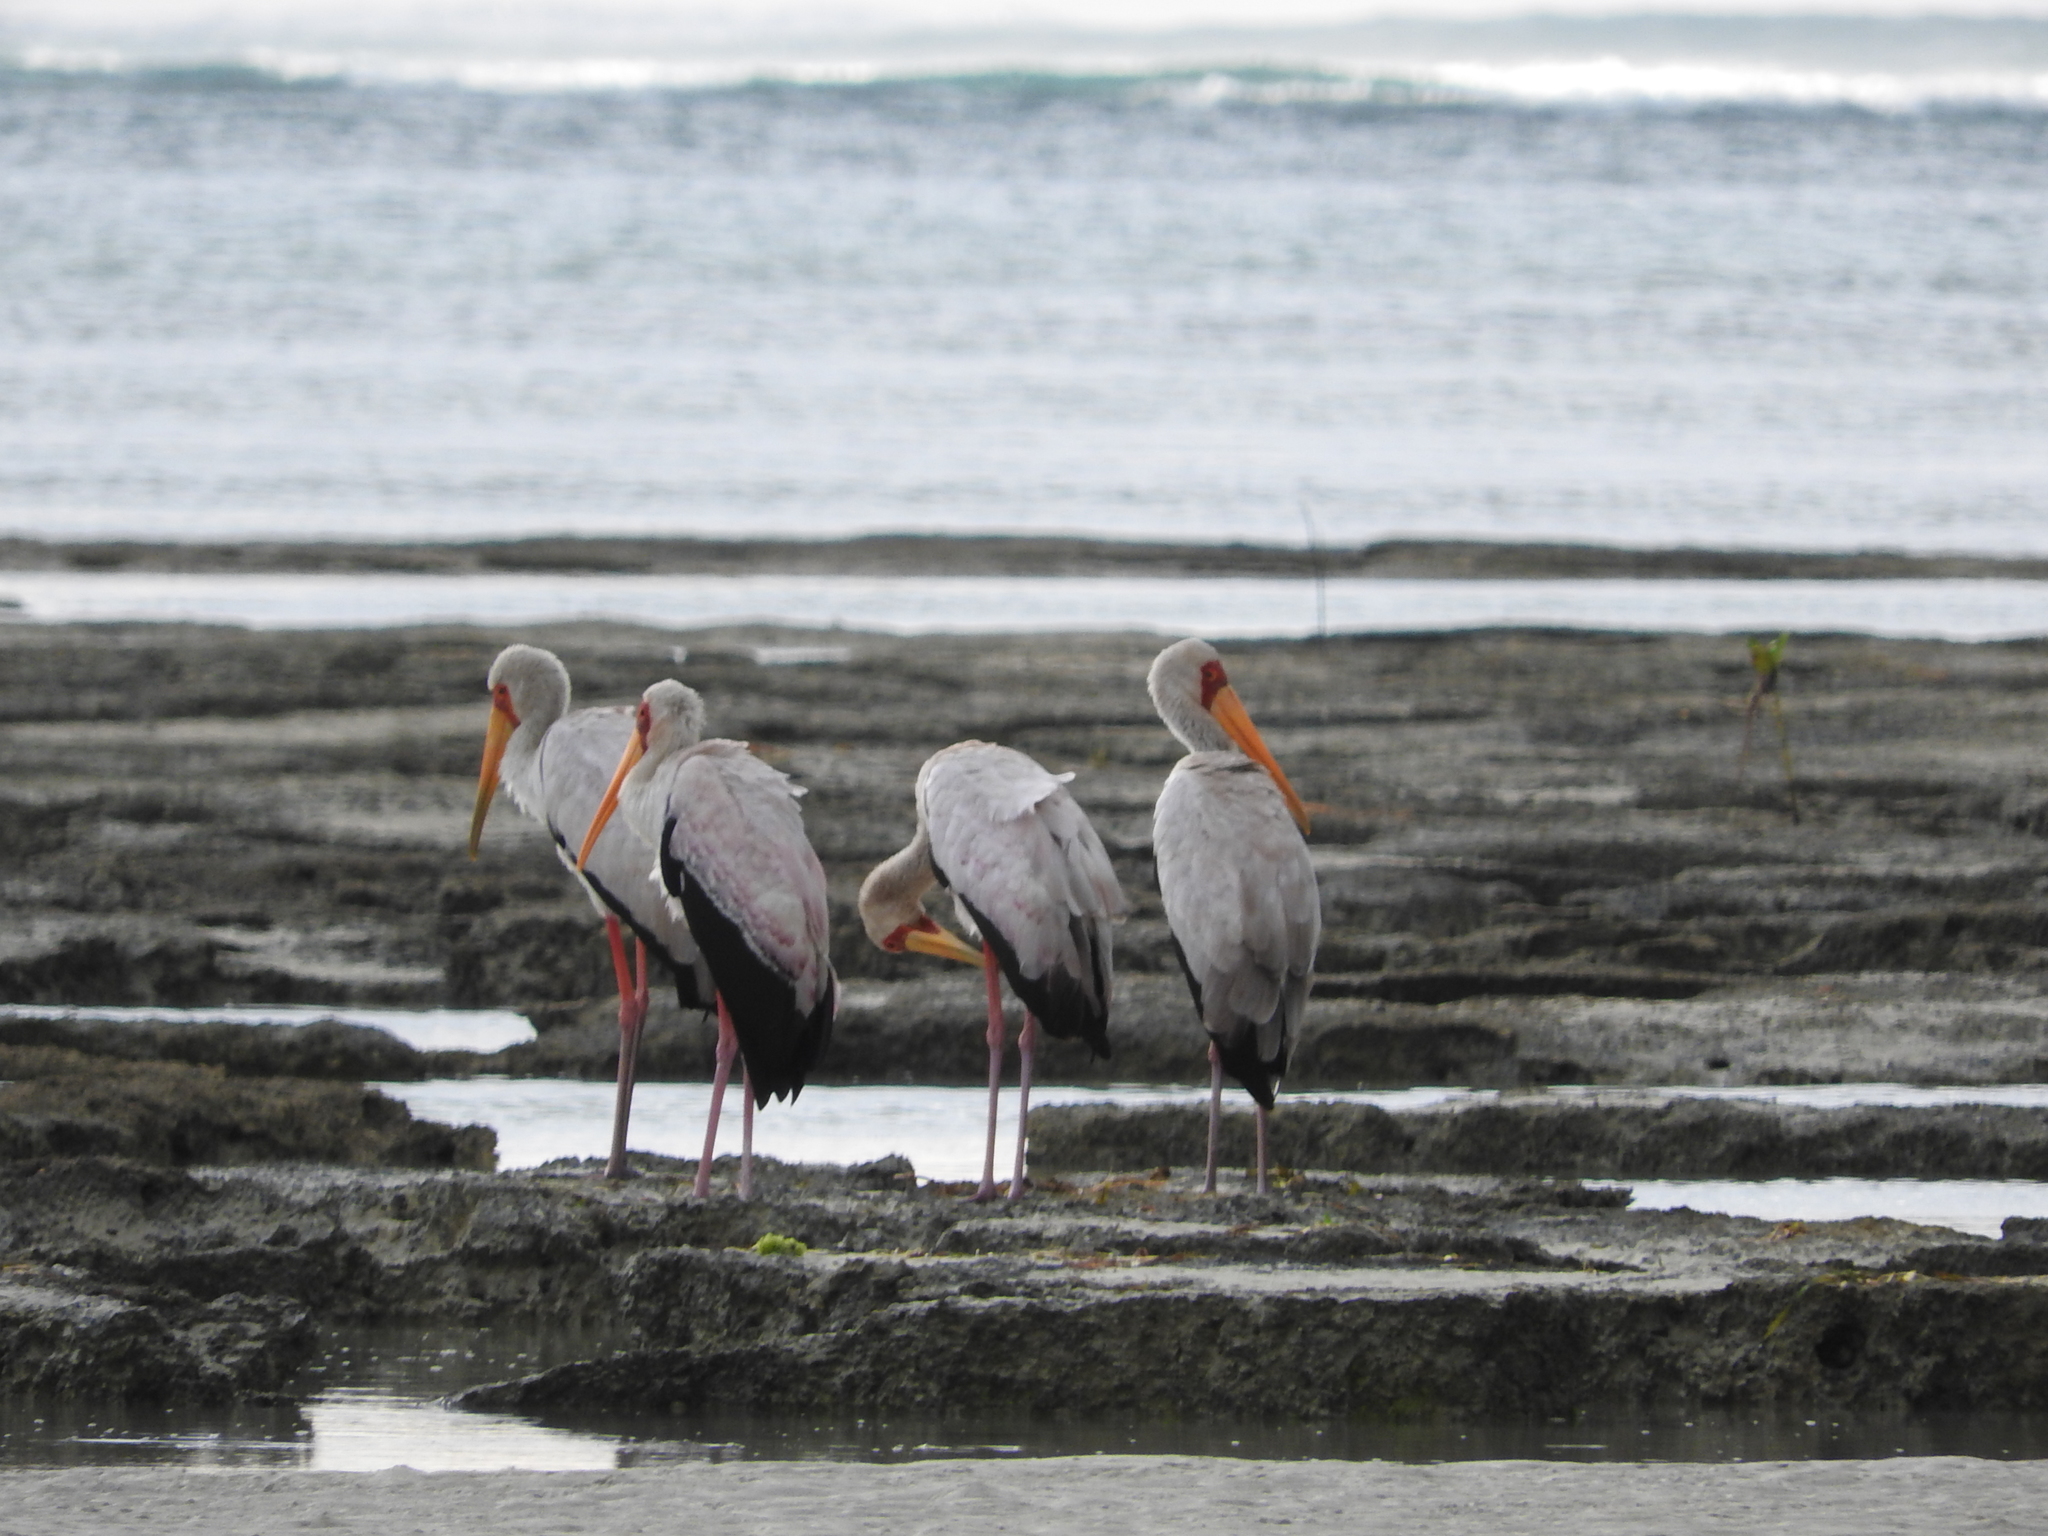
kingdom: Animalia
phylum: Chordata
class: Aves
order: Ciconiiformes
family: Ciconiidae
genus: Mycteria
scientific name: Mycteria ibis
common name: Yellow-billed stork
